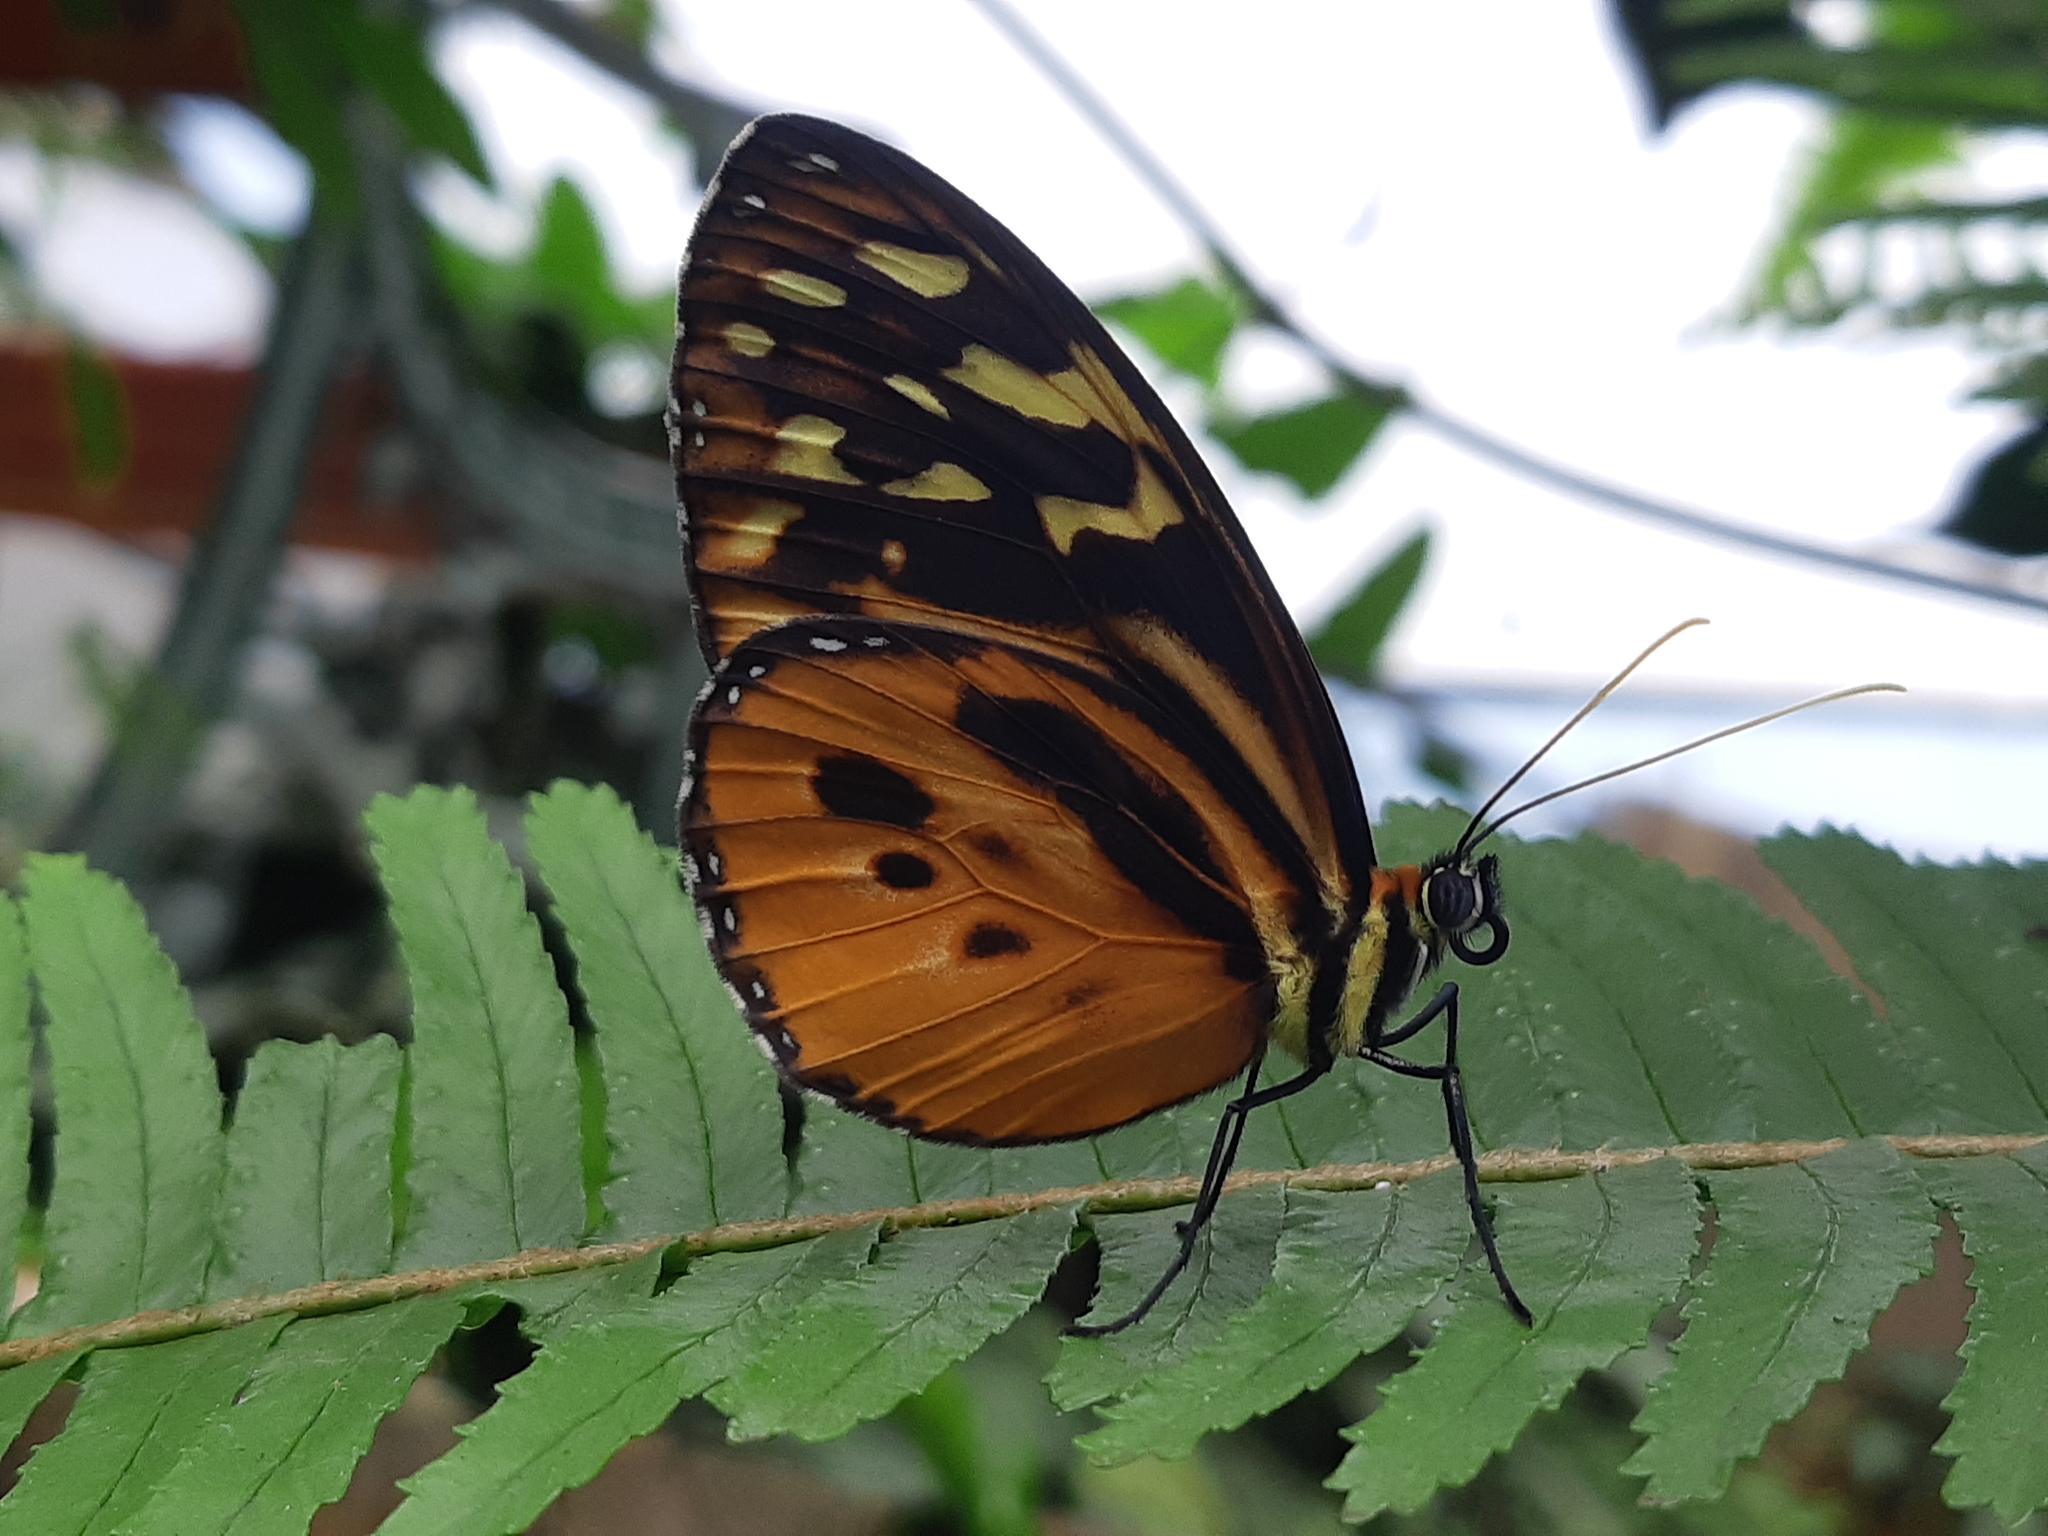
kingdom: Animalia
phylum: Arthropoda
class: Insecta
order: Lepidoptera
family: Nymphalidae
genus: Tithorea
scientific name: Tithorea harmonia
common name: Harmonia tigerwing
